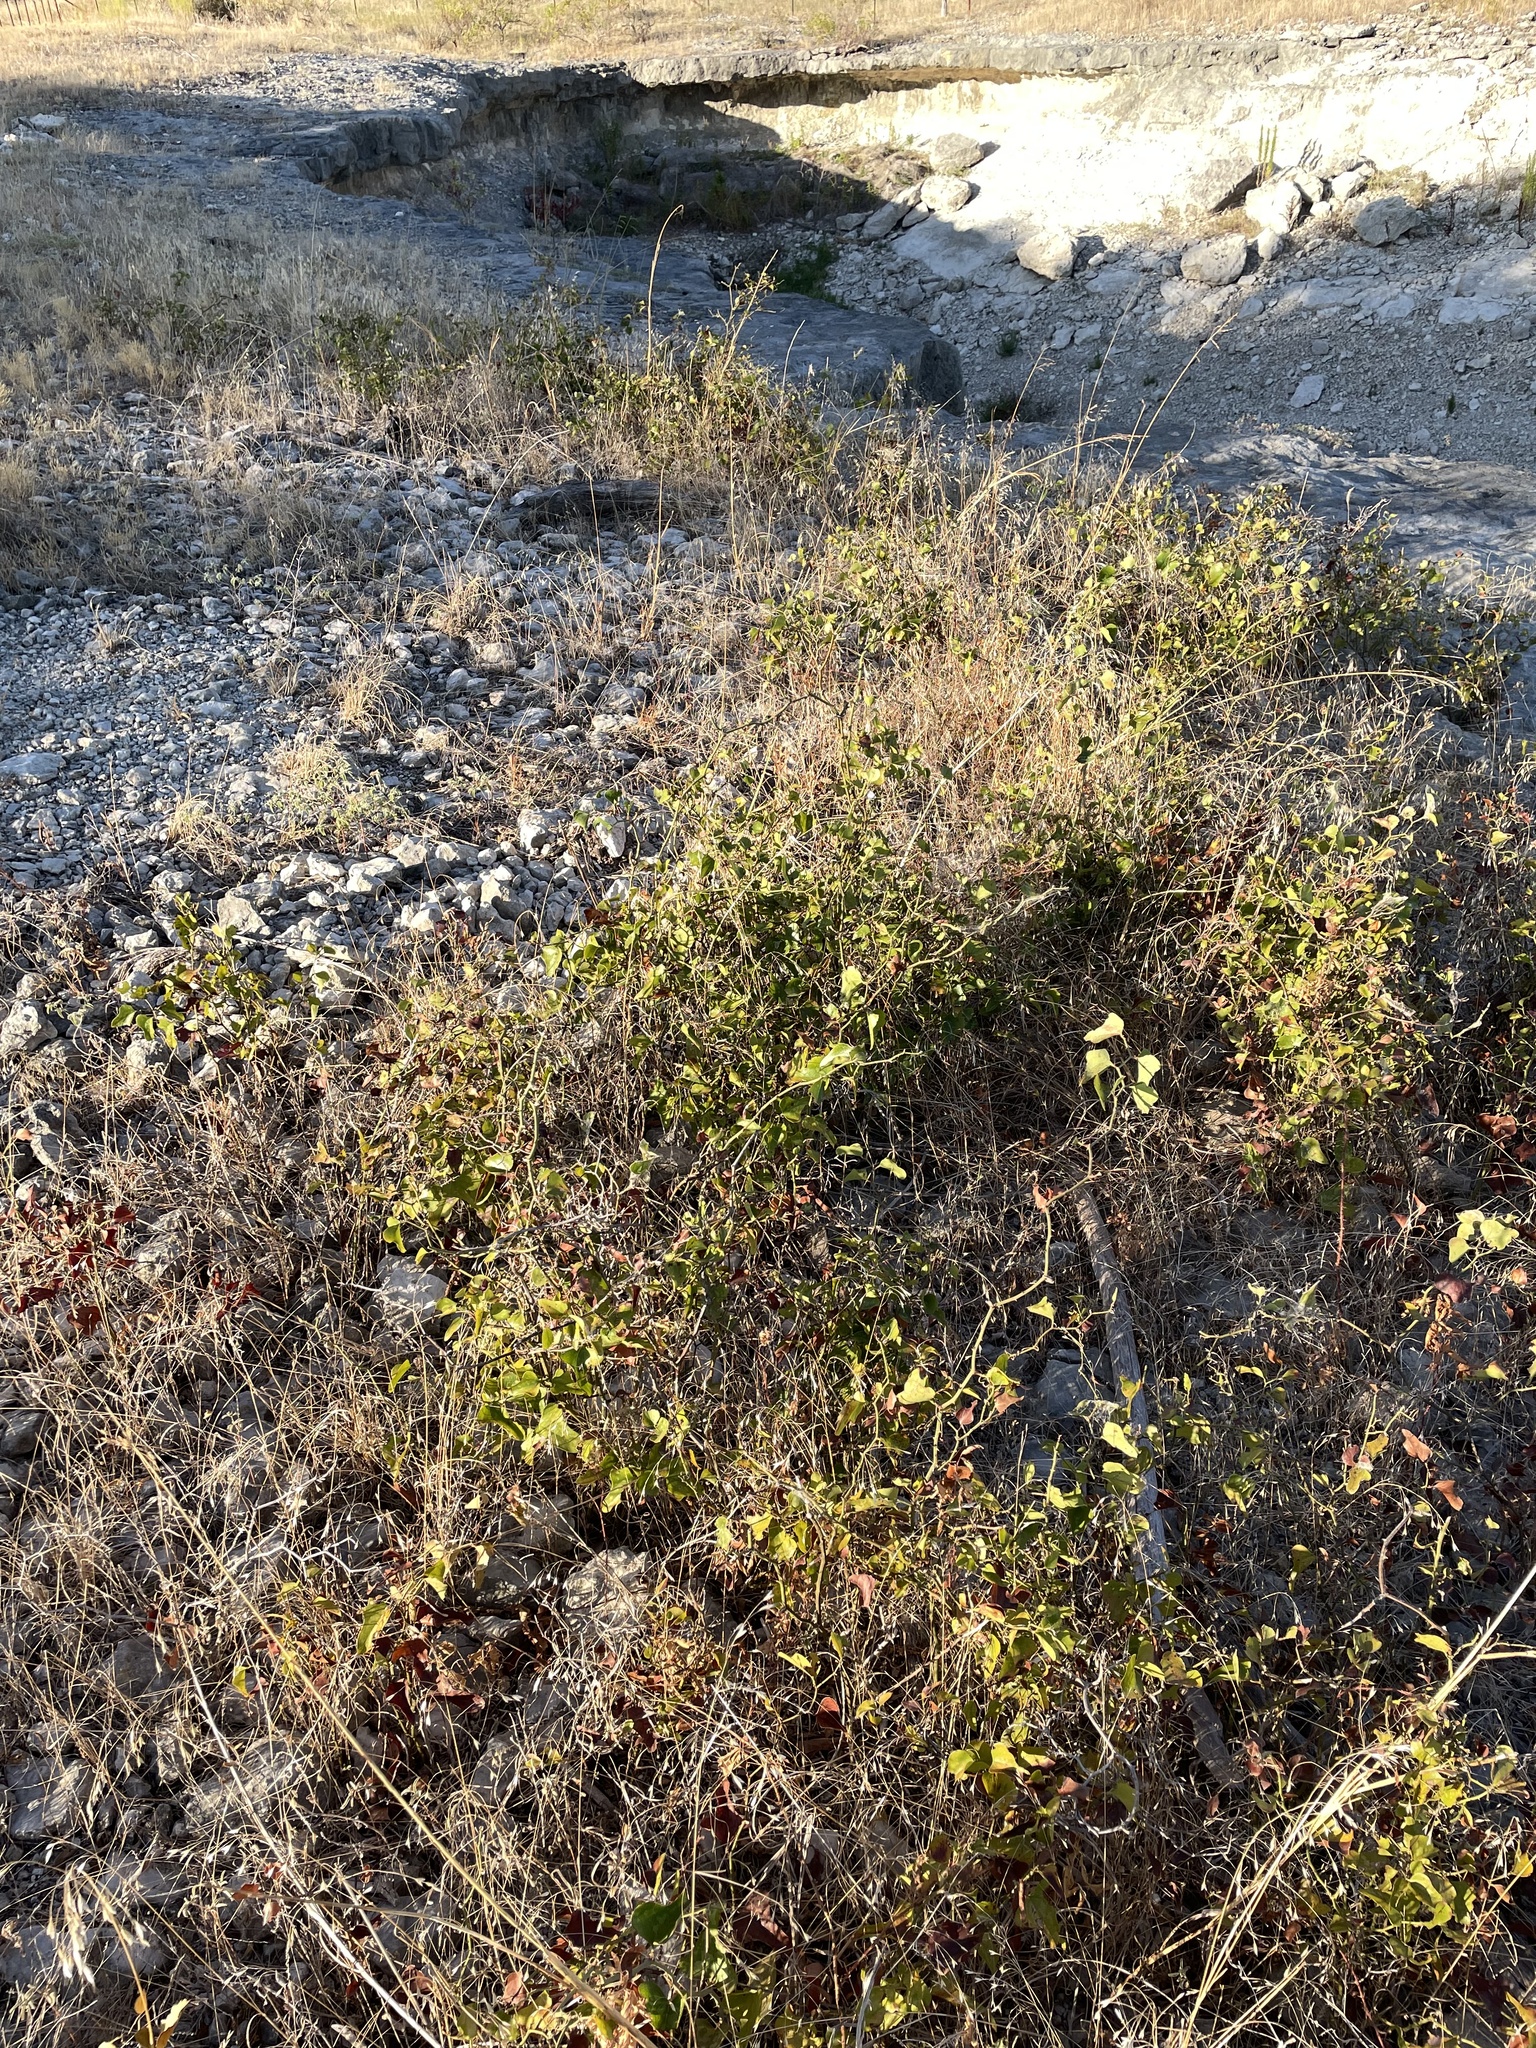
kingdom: Plantae
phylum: Tracheophyta
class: Liliopsida
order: Liliales
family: Smilacaceae
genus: Smilax
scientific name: Smilax bona-nox
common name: Catbrier
